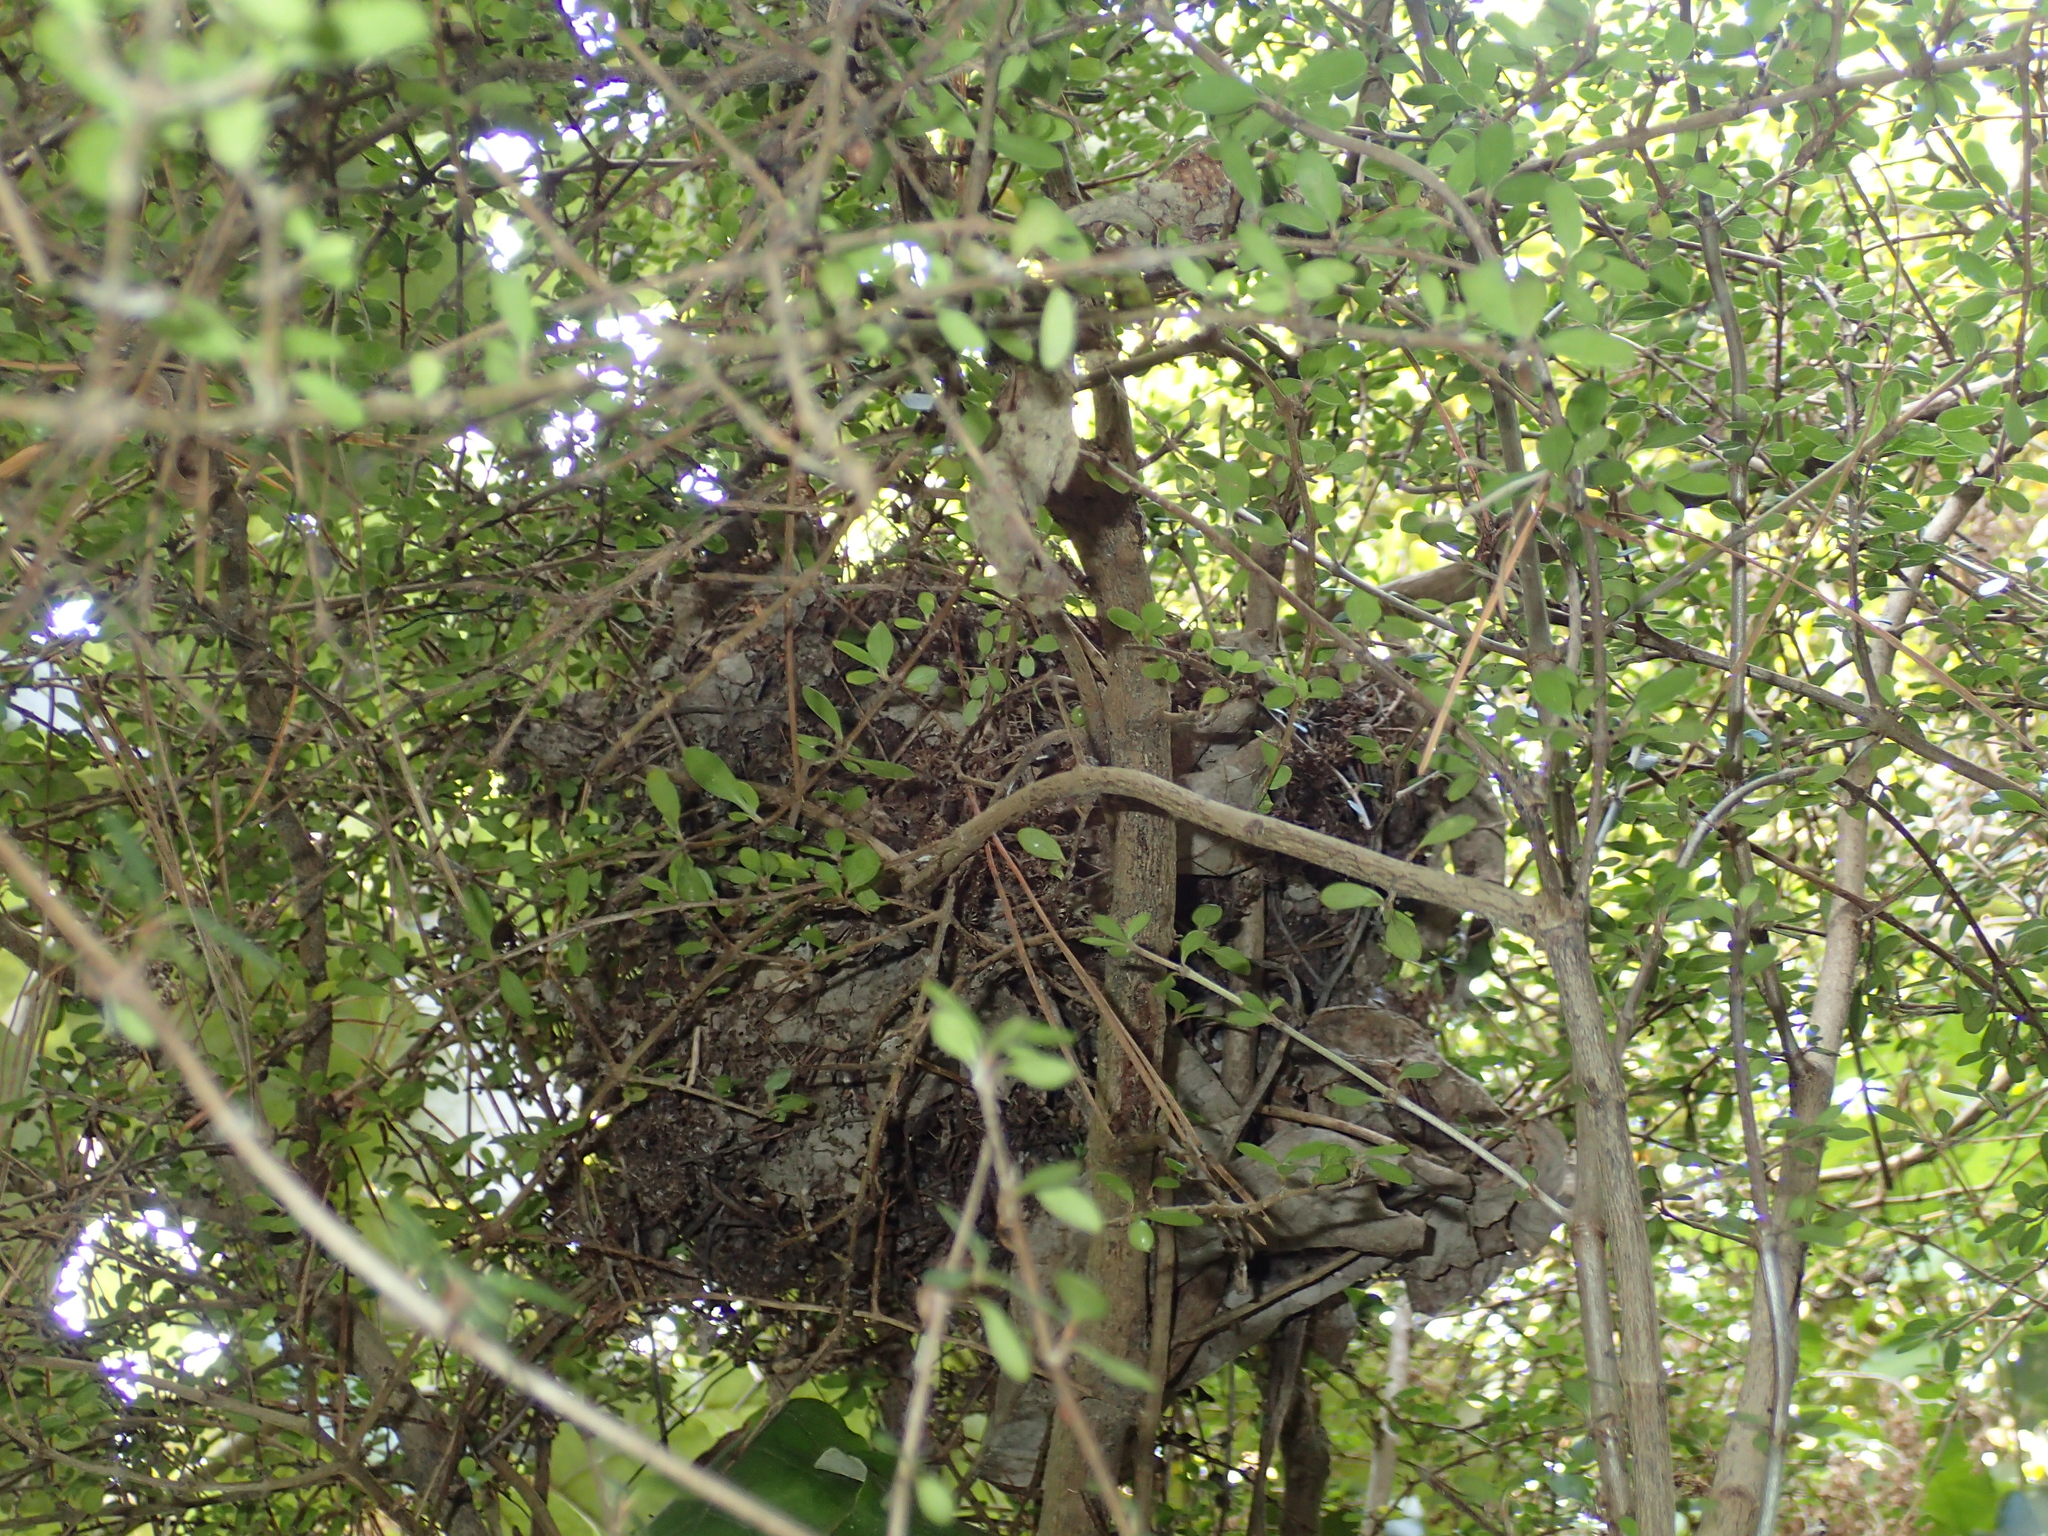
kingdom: Animalia
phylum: Chordata
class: Aves
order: Passeriformes
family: Turdidae
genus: Turdus
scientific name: Turdus merula
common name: Common blackbird
